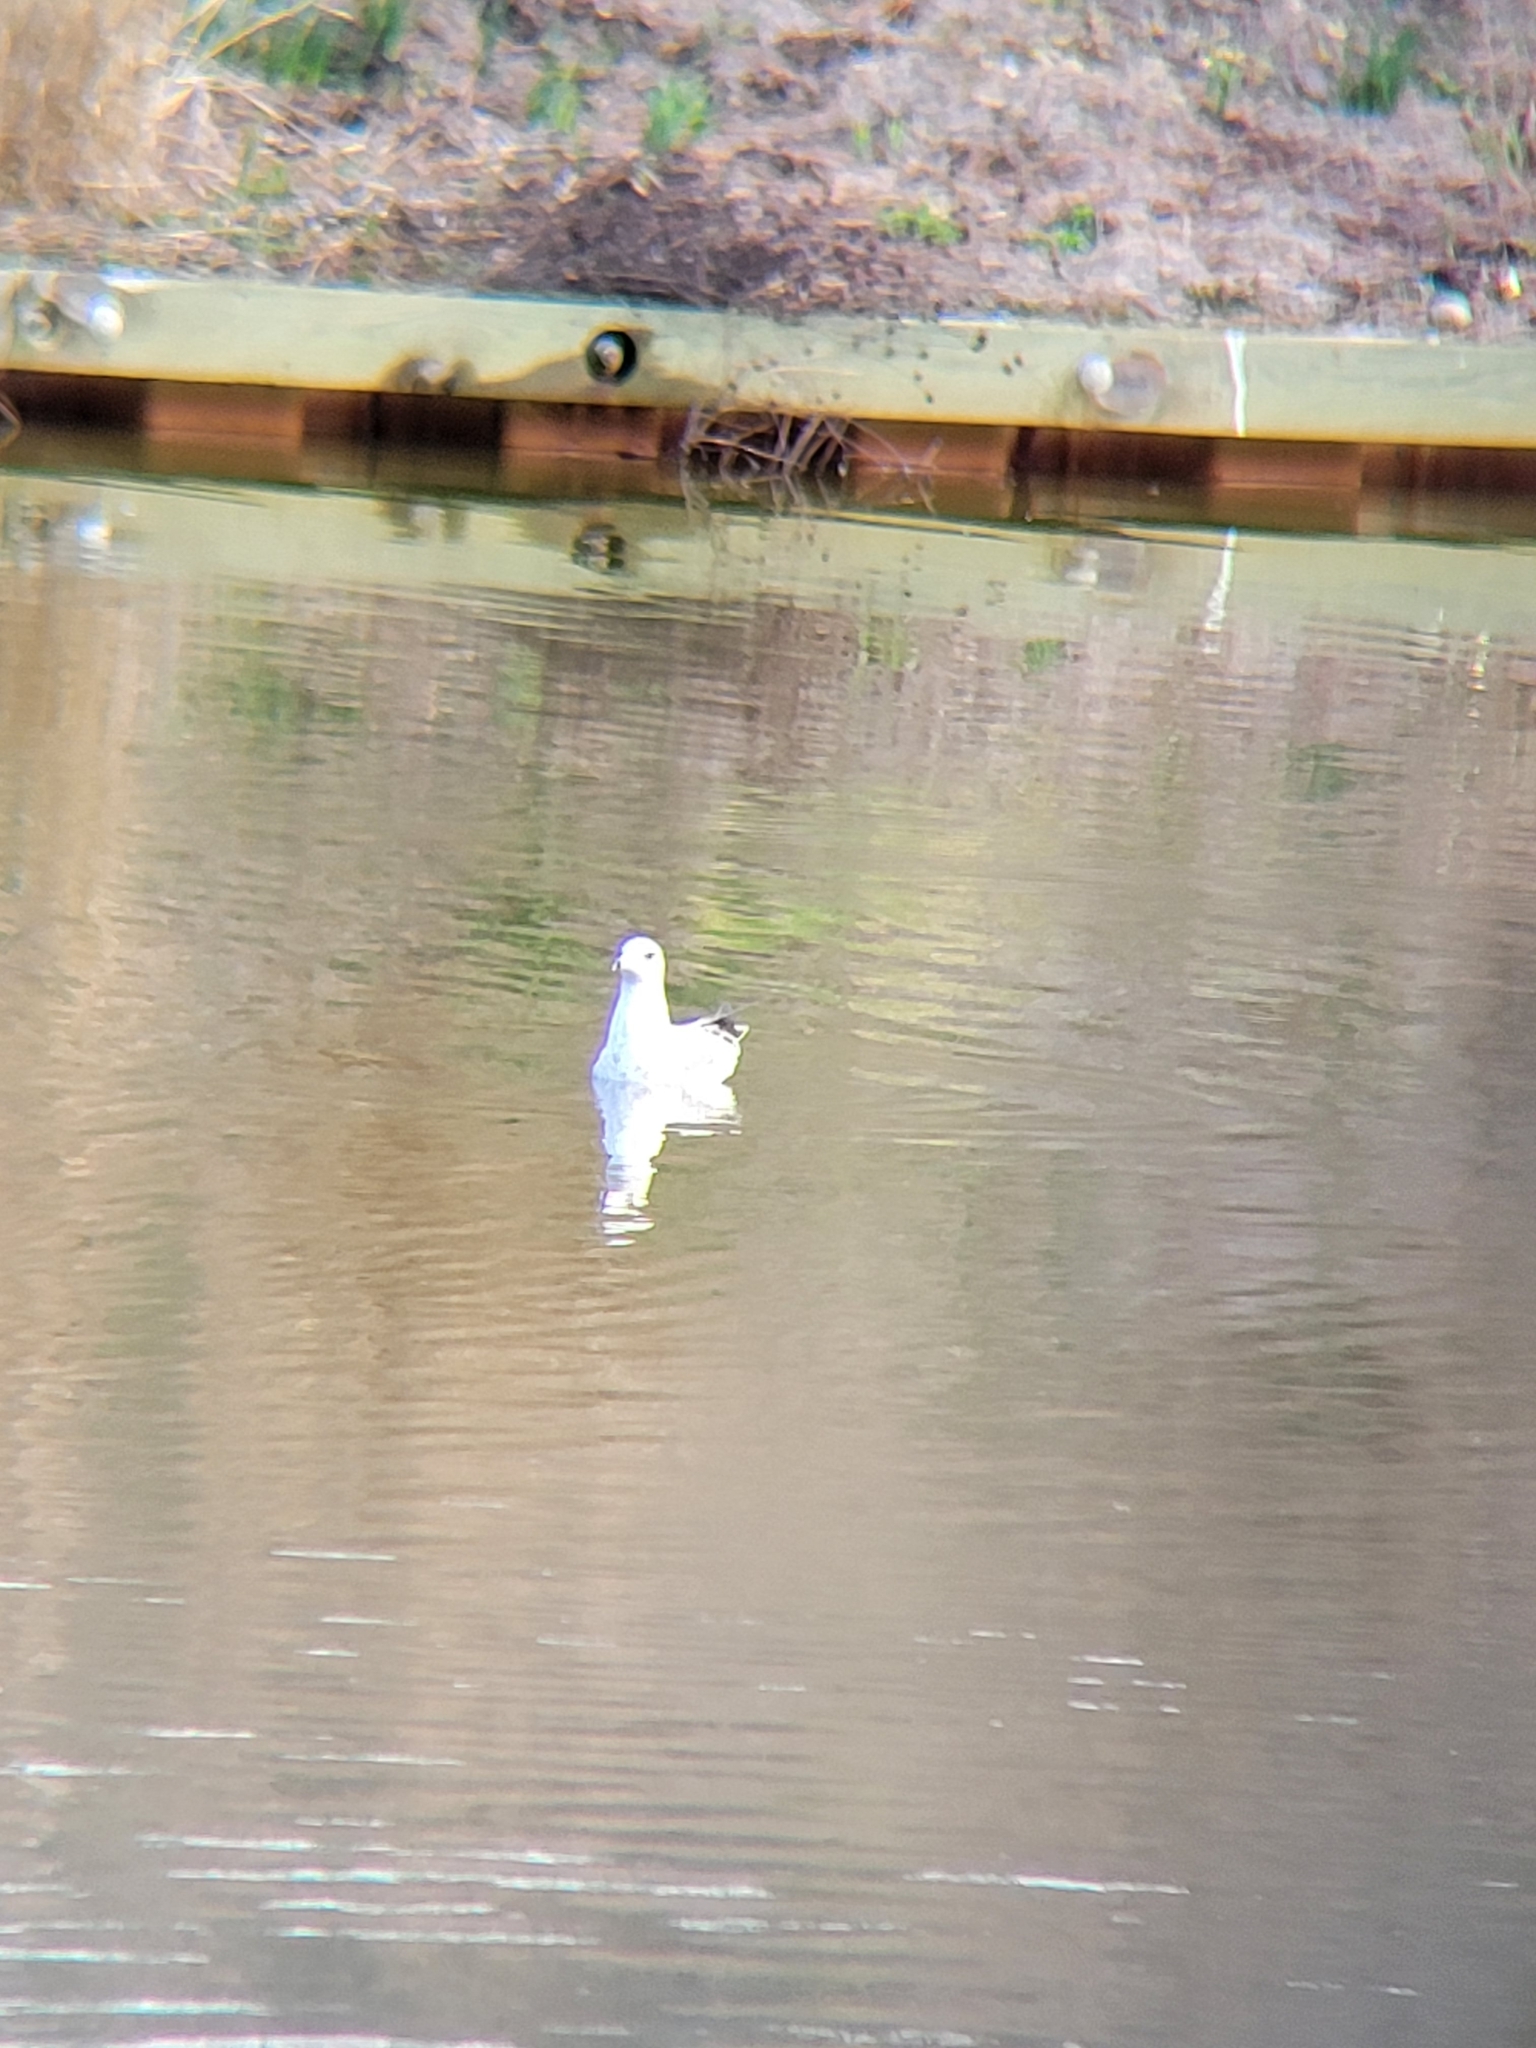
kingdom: Animalia
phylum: Chordata
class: Aves
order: Charadriiformes
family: Laridae
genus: Larus
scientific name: Larus delawarensis
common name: Ring-billed gull
